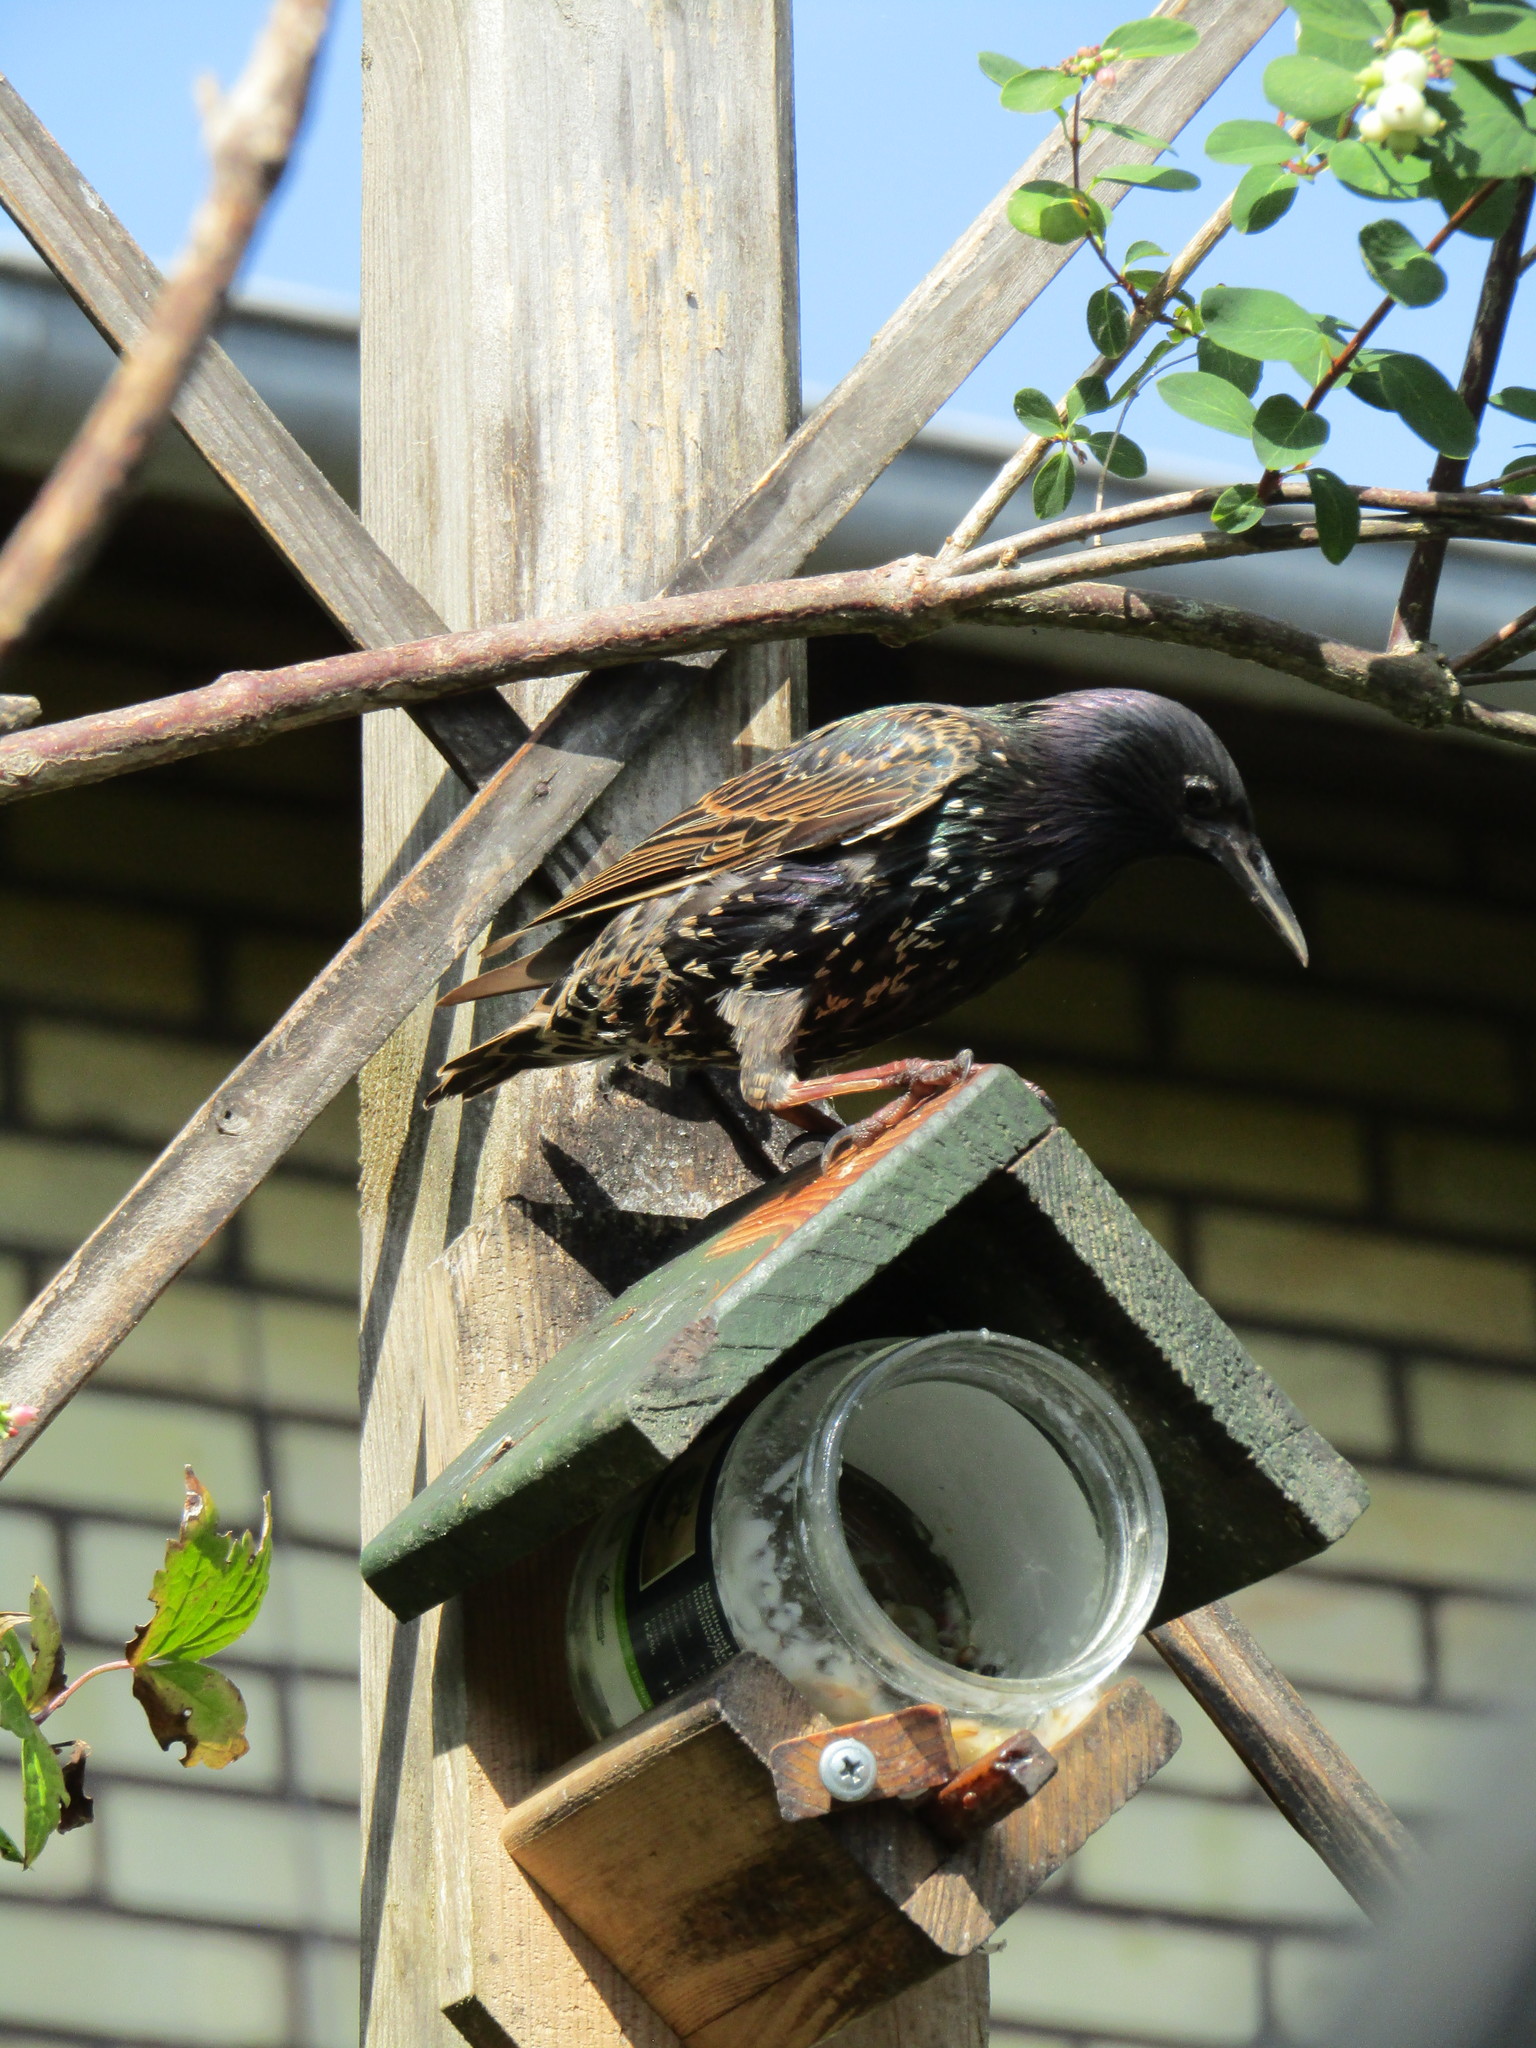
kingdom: Animalia
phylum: Chordata
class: Aves
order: Passeriformes
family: Sturnidae
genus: Sturnus
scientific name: Sturnus vulgaris
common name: Common starling
